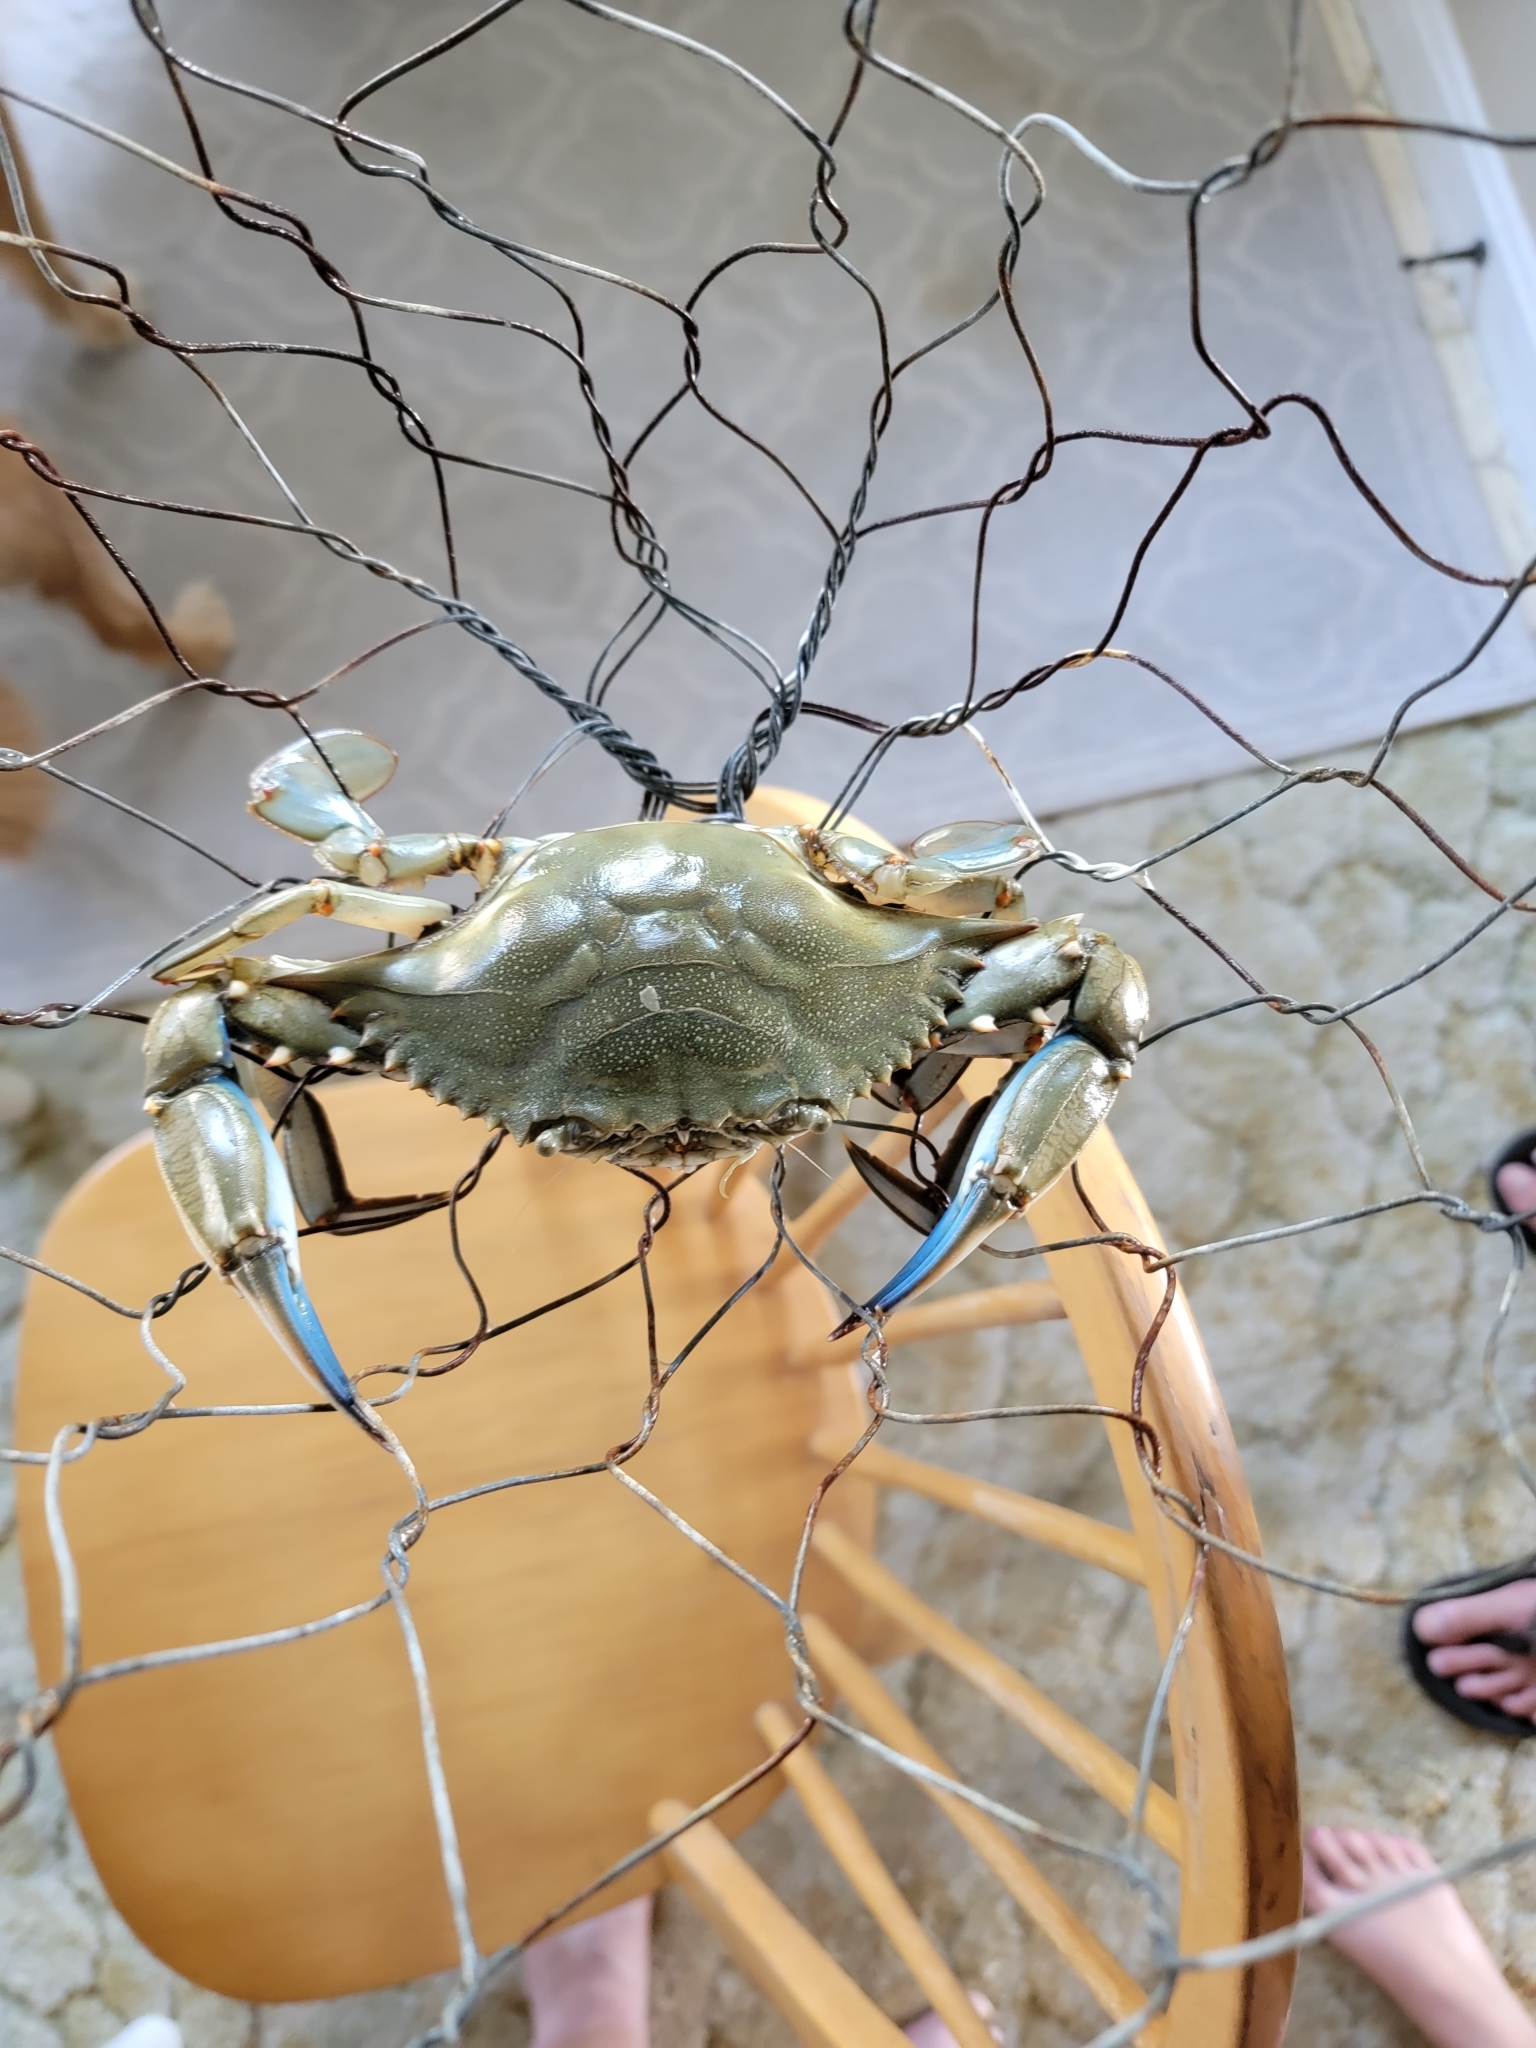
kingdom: Animalia
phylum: Arthropoda
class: Malacostraca
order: Decapoda
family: Portunidae
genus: Callinectes
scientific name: Callinectes sapidus
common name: Blue crab
